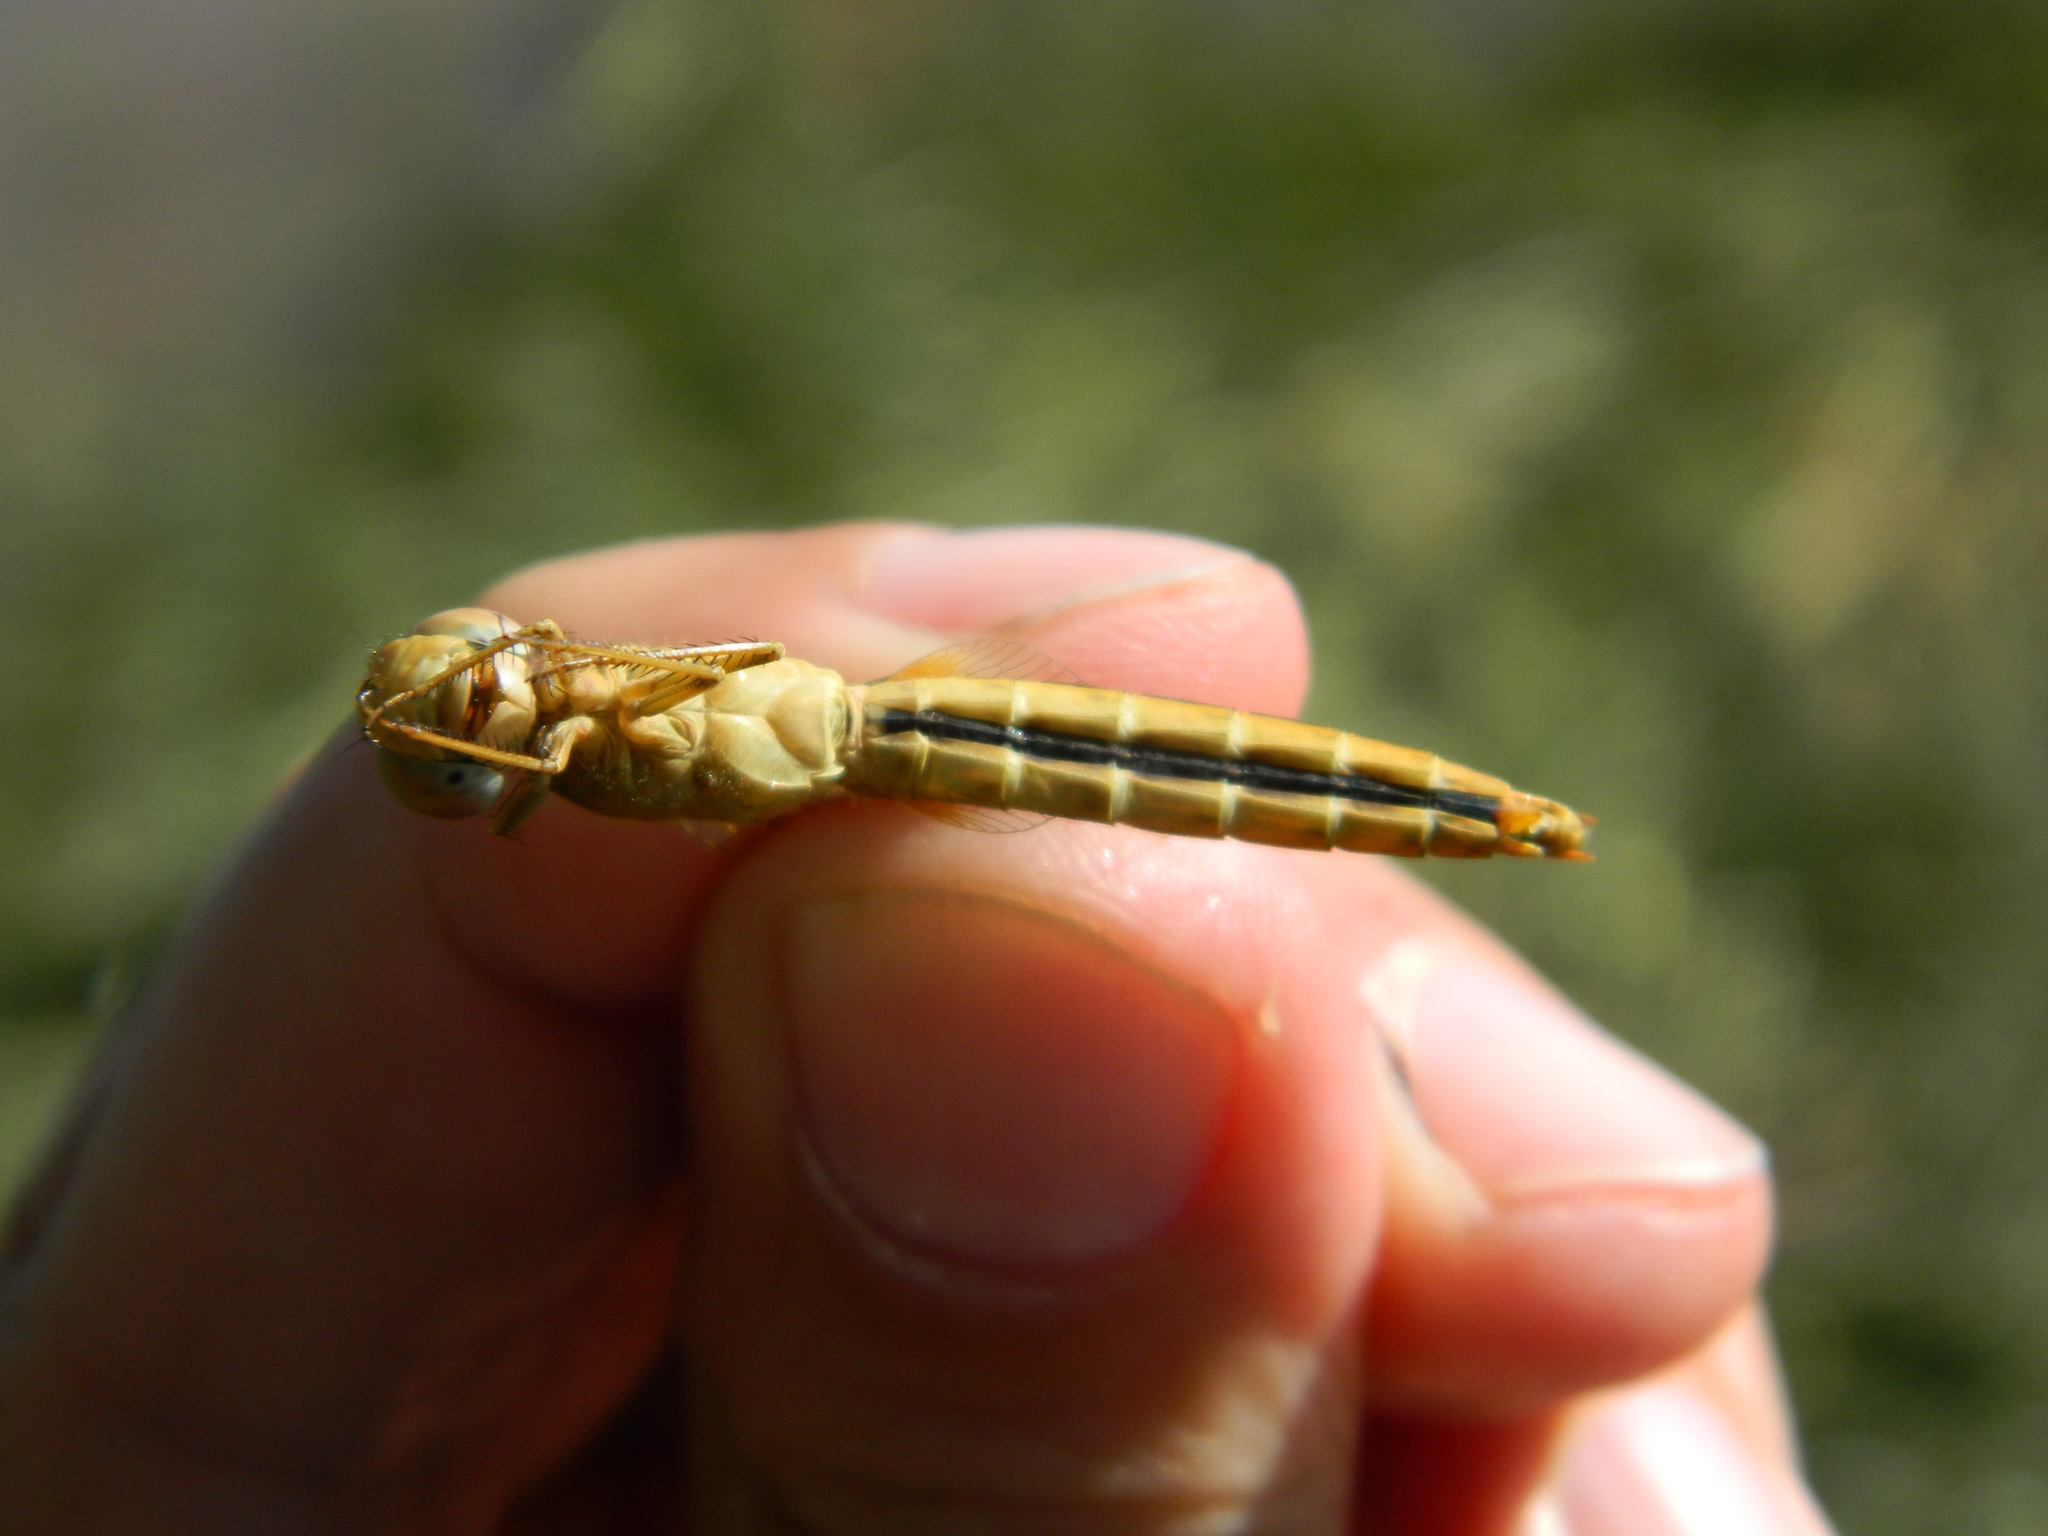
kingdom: Animalia
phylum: Arthropoda
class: Insecta
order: Odonata
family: Libellulidae
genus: Crocothemis
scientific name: Crocothemis erythraea
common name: Scarlet dragonfly
